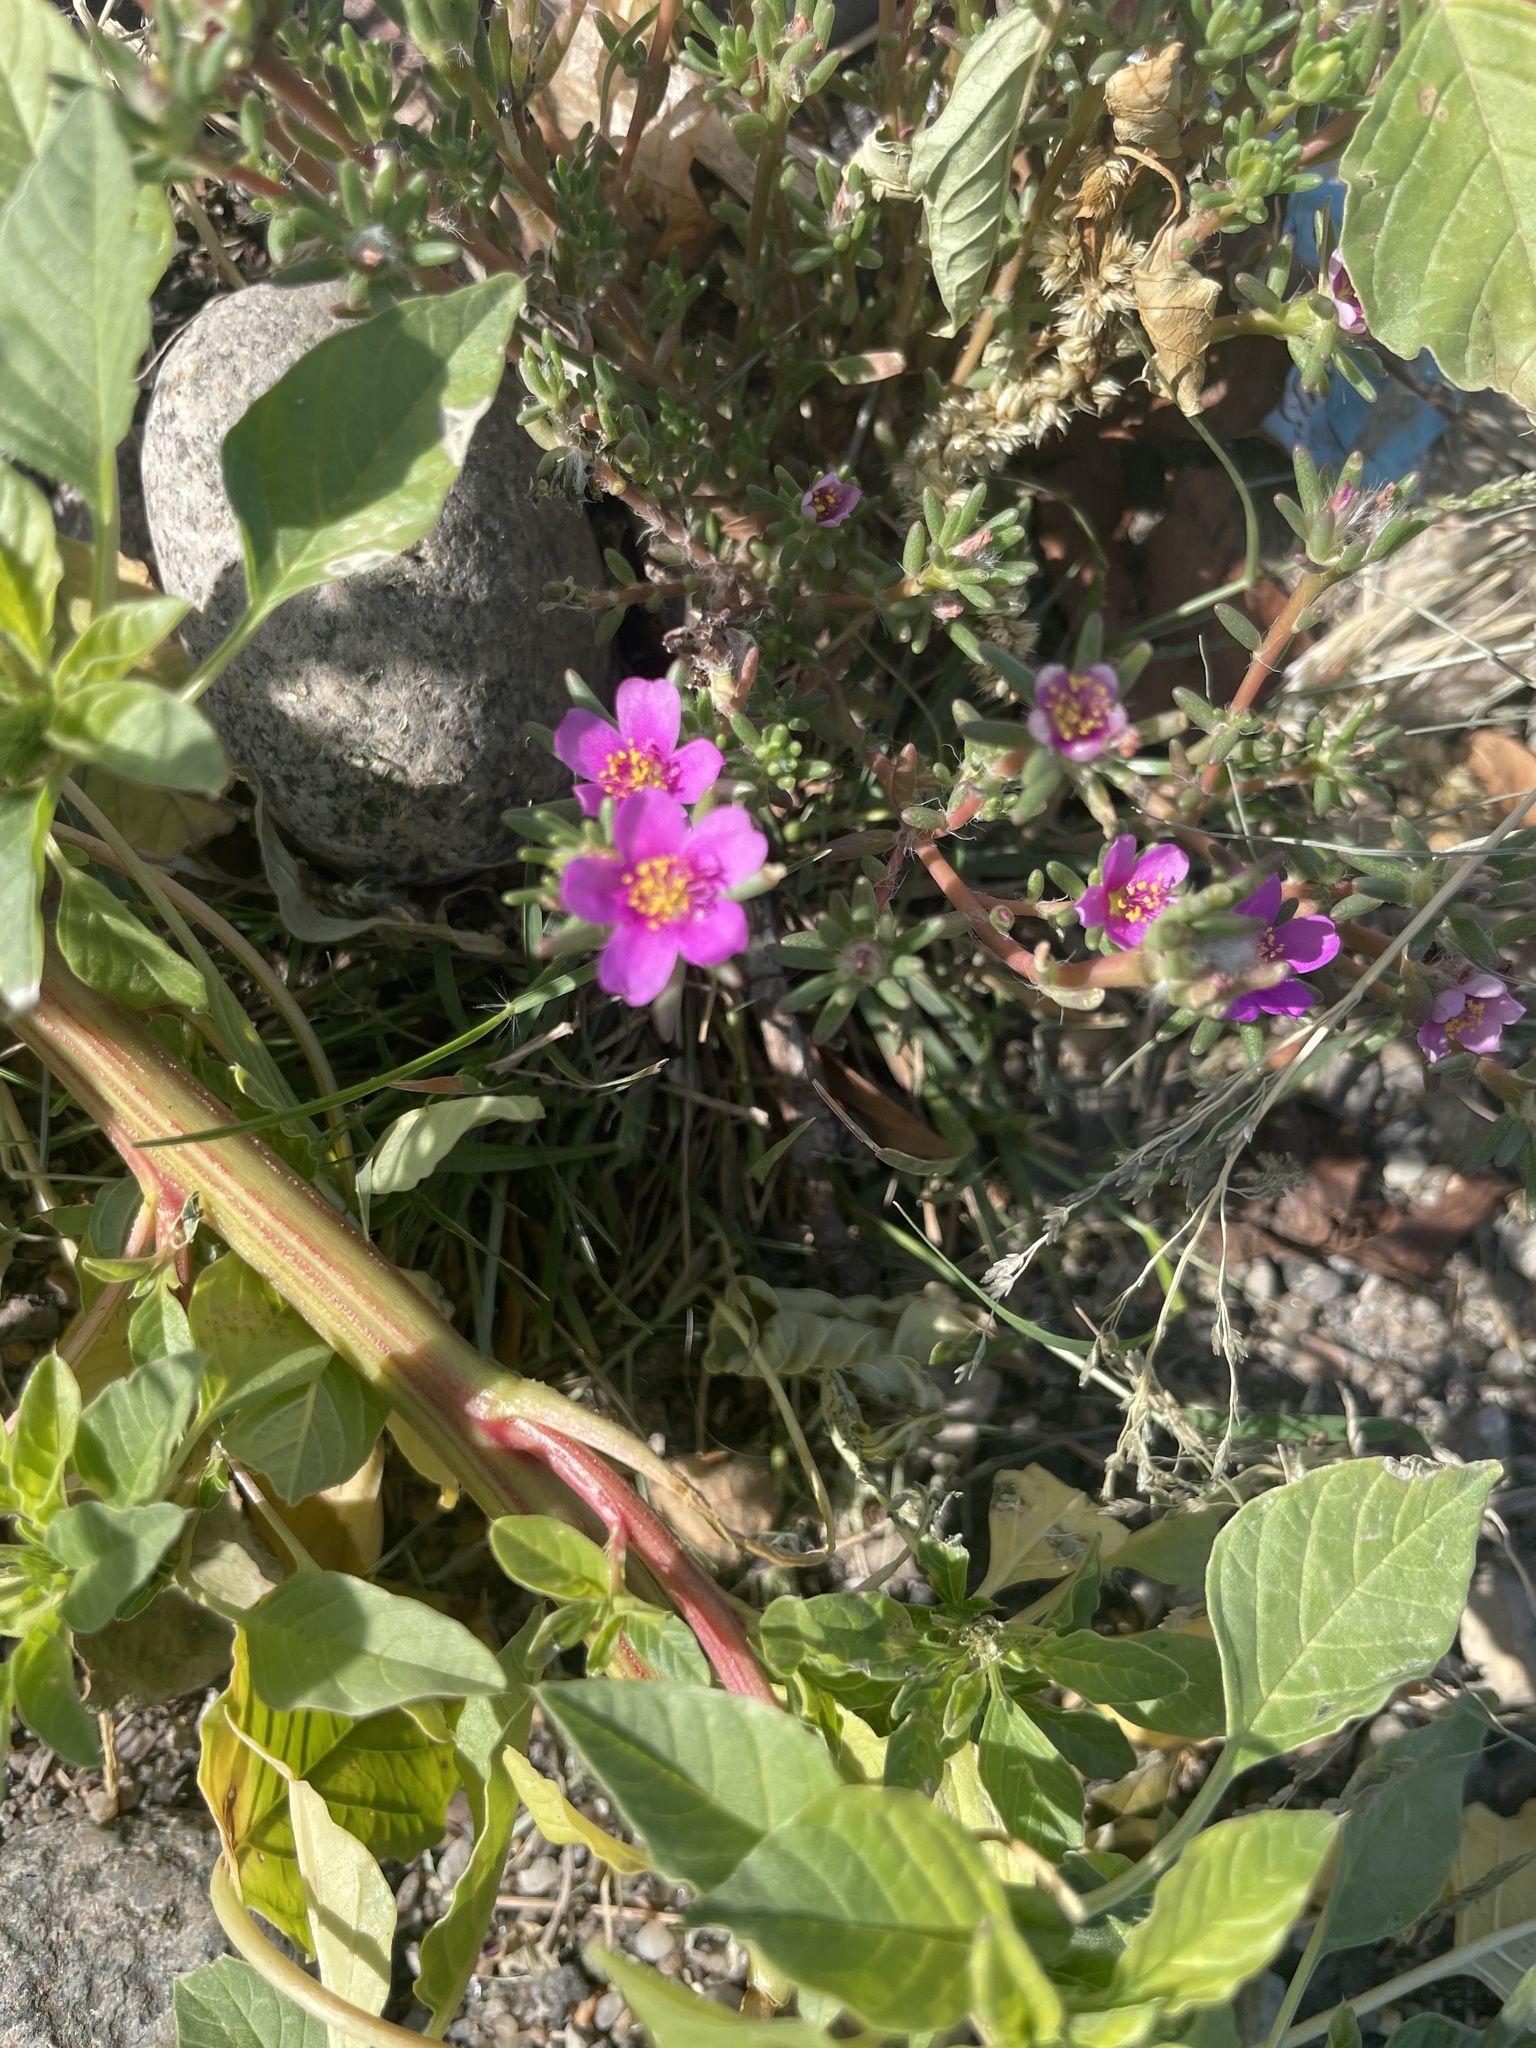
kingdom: Plantae
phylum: Tracheophyta
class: Magnoliopsida
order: Caryophyllales
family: Portulacaceae
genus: Portulaca
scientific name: Portulaca pilosa
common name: Kiss me quick
